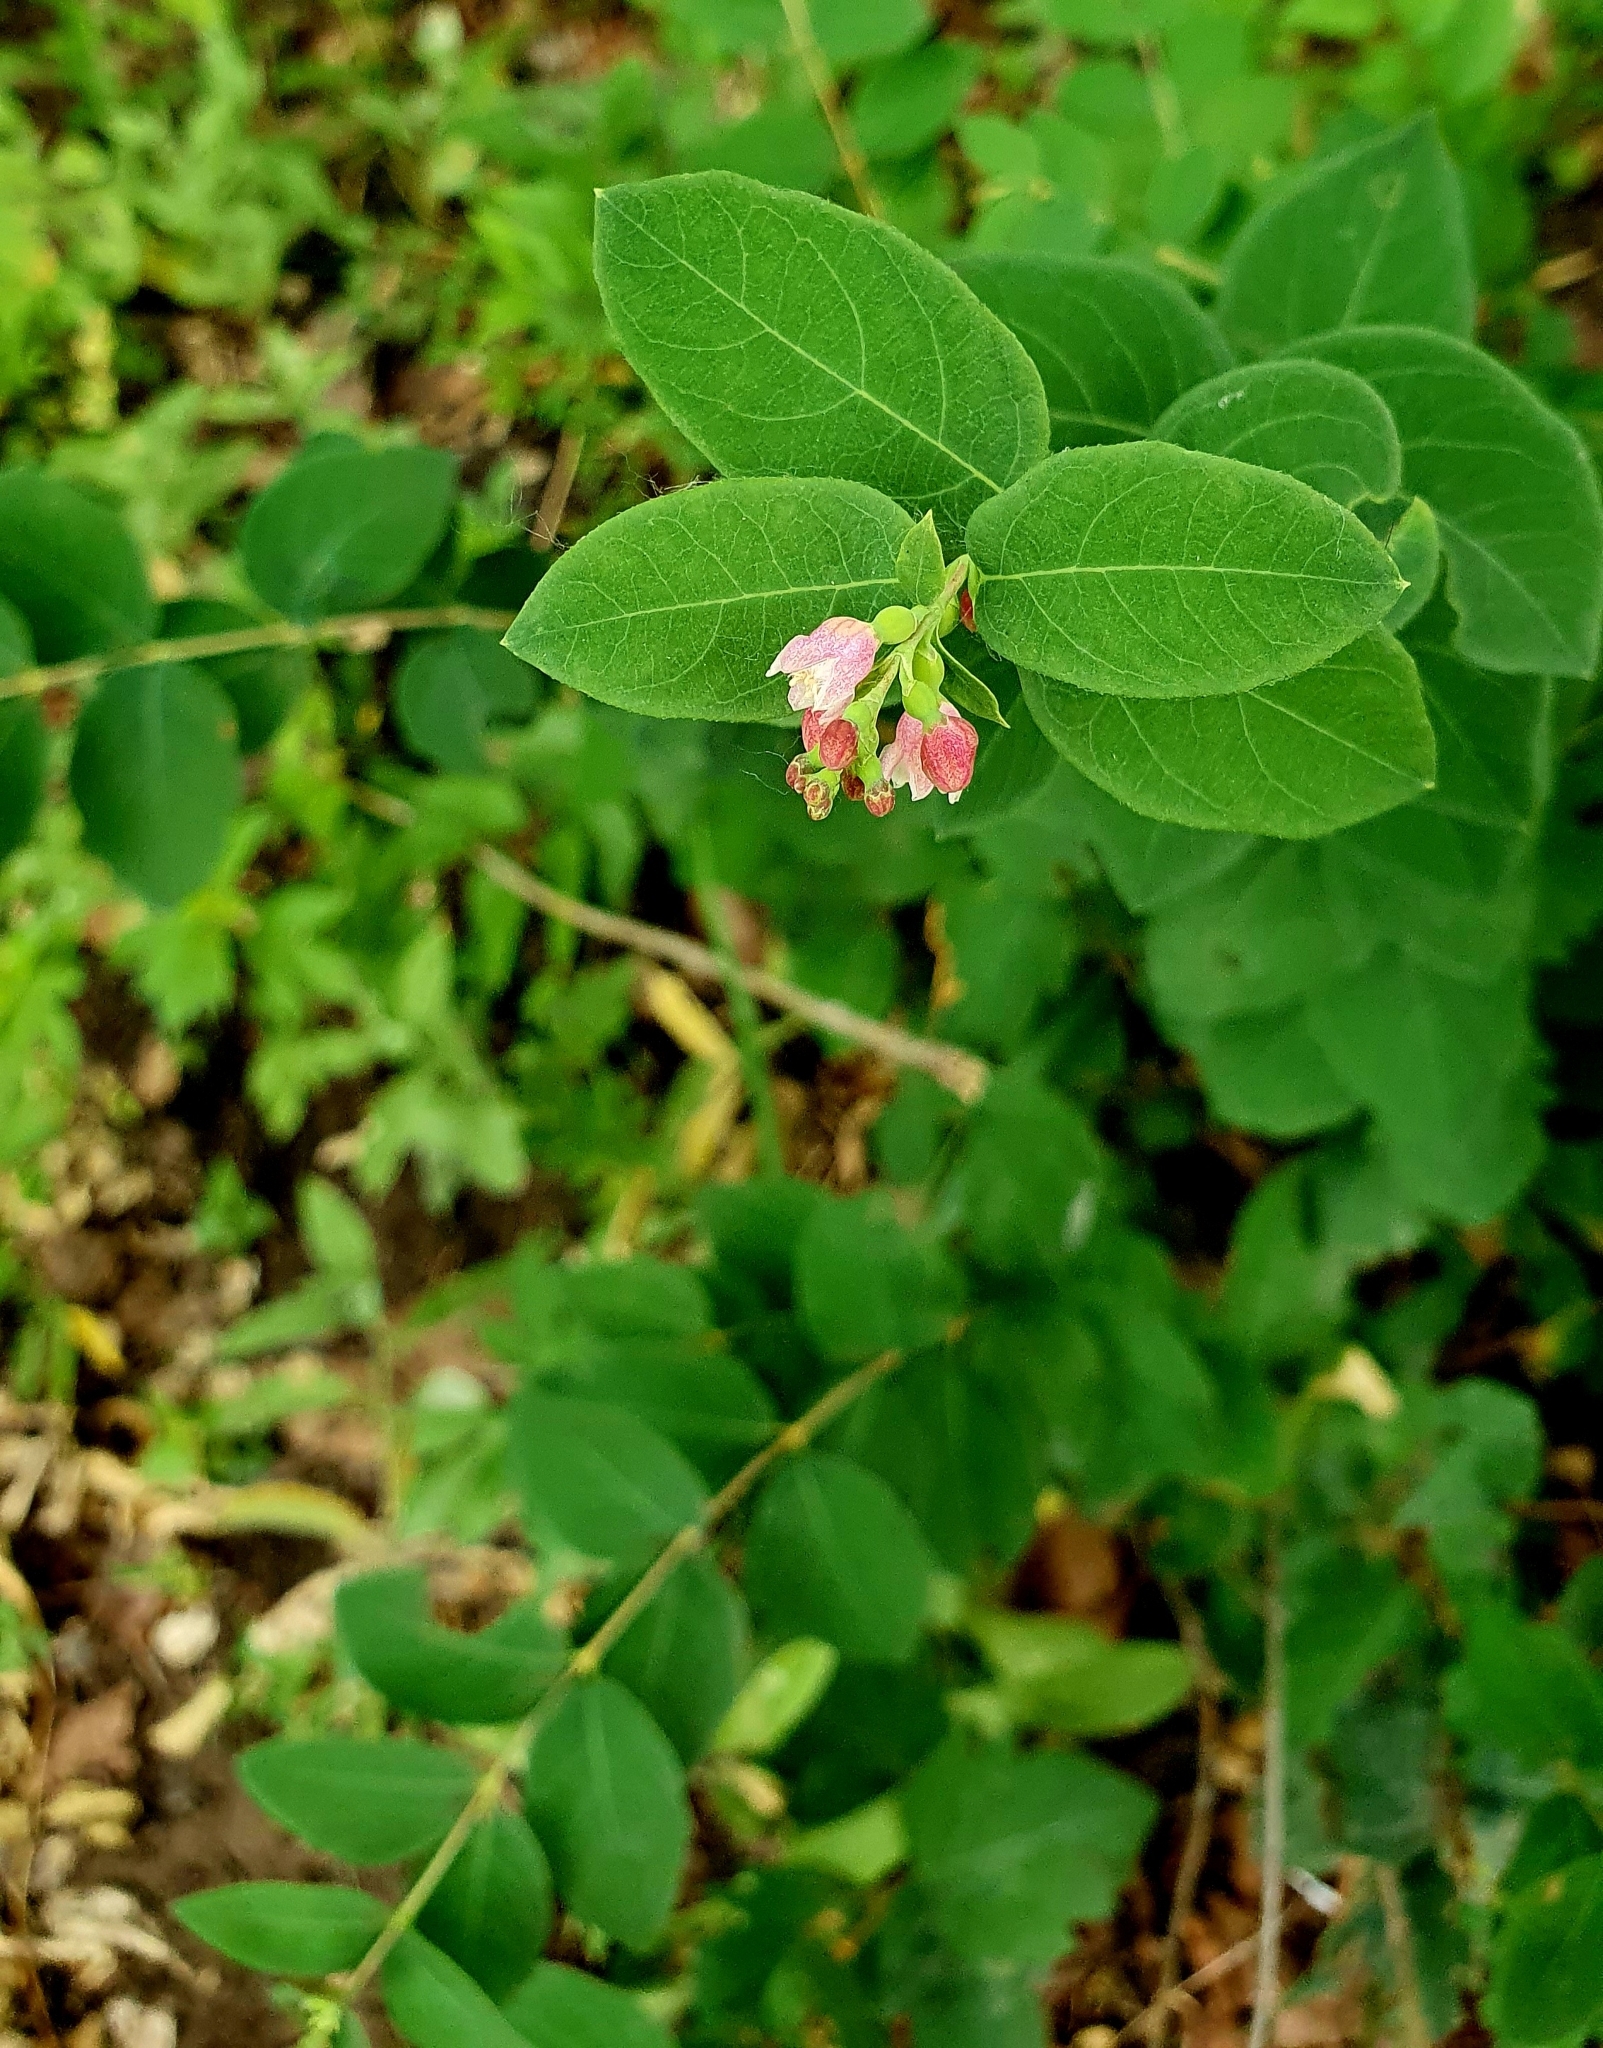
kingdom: Plantae
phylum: Tracheophyta
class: Magnoliopsida
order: Dipsacales
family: Caprifoliaceae
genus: Symphoricarpos
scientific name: Symphoricarpos albus
